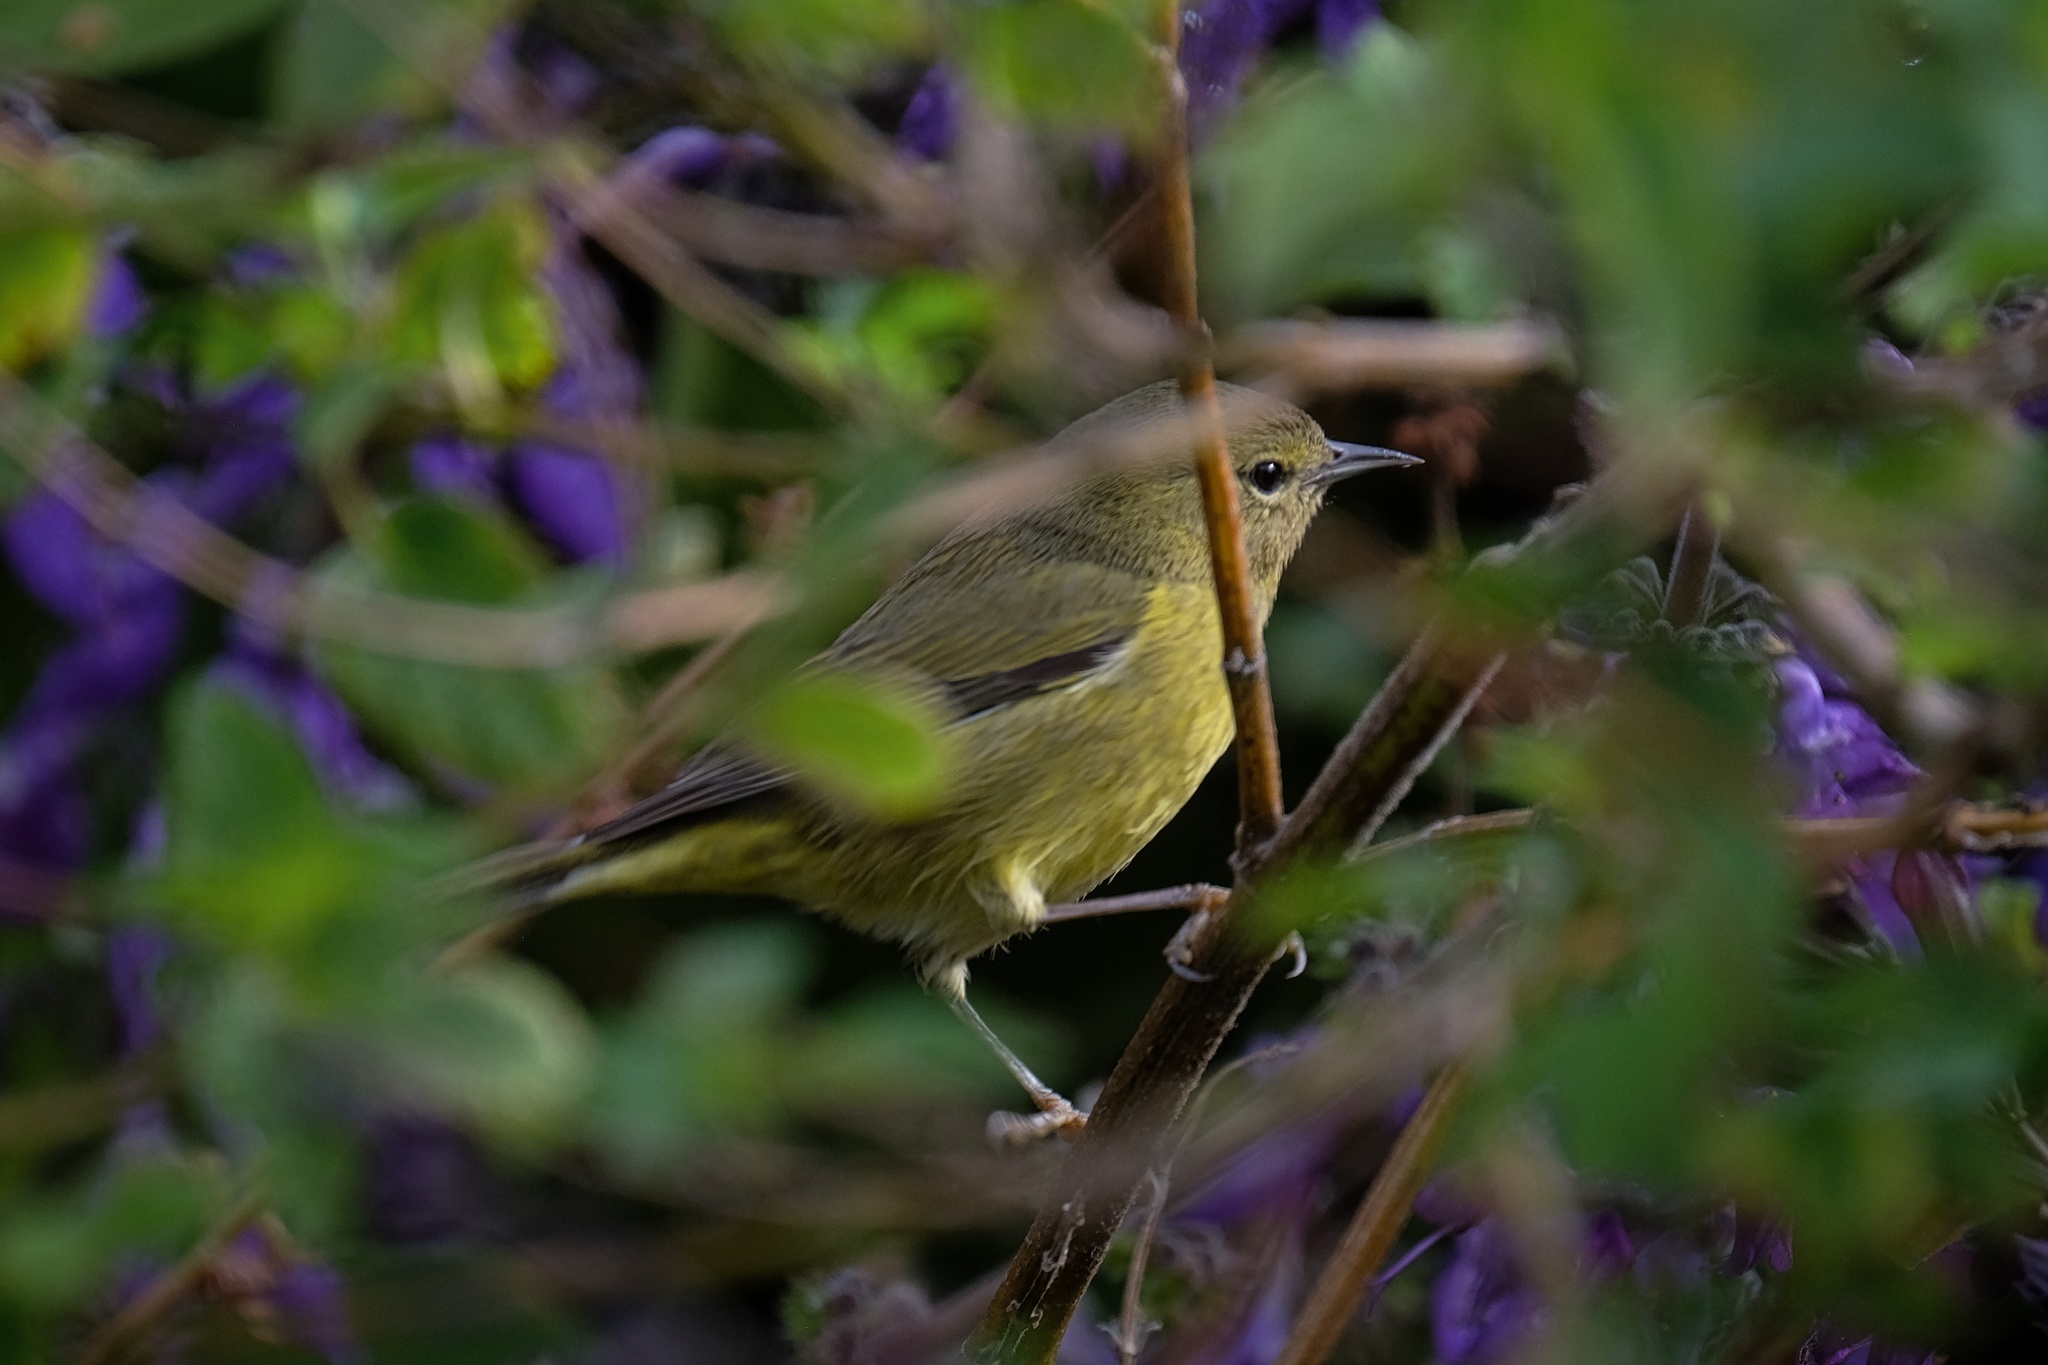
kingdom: Animalia
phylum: Chordata
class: Aves
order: Passeriformes
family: Parulidae
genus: Leiothlypis
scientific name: Leiothlypis celata
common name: Orange-crowned warbler
